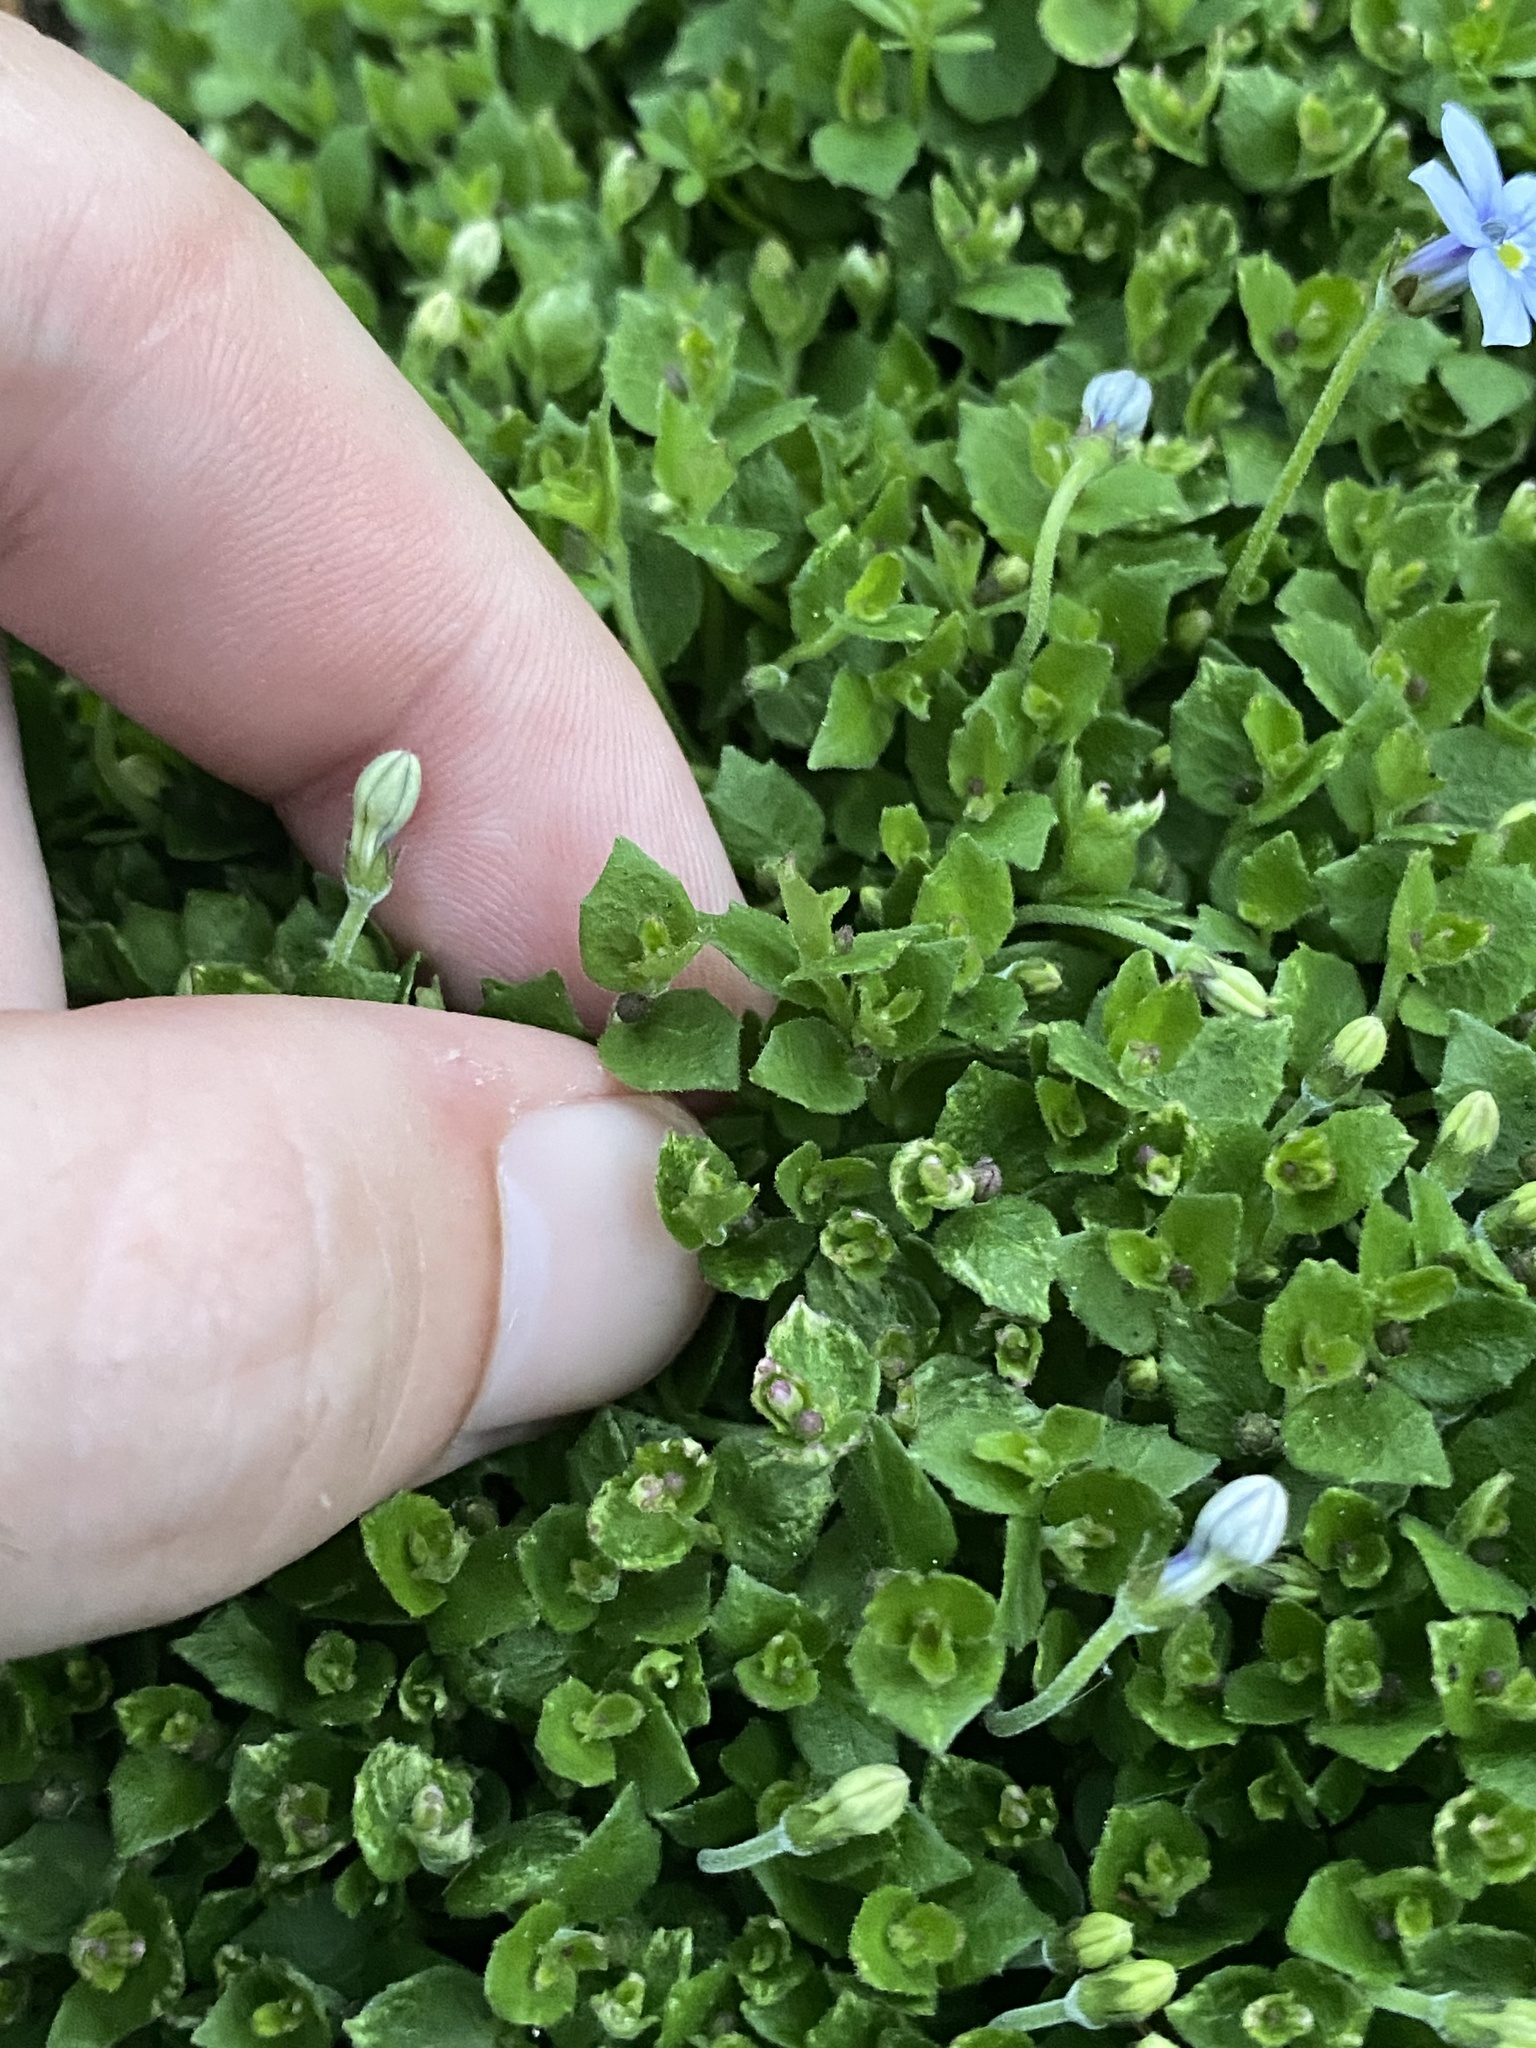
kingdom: Plantae
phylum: Tracheophyta
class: Magnoliopsida
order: Asterales
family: Campanulaceae
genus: Lobelia
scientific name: Lobelia pedunculata
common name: Matted pratia
